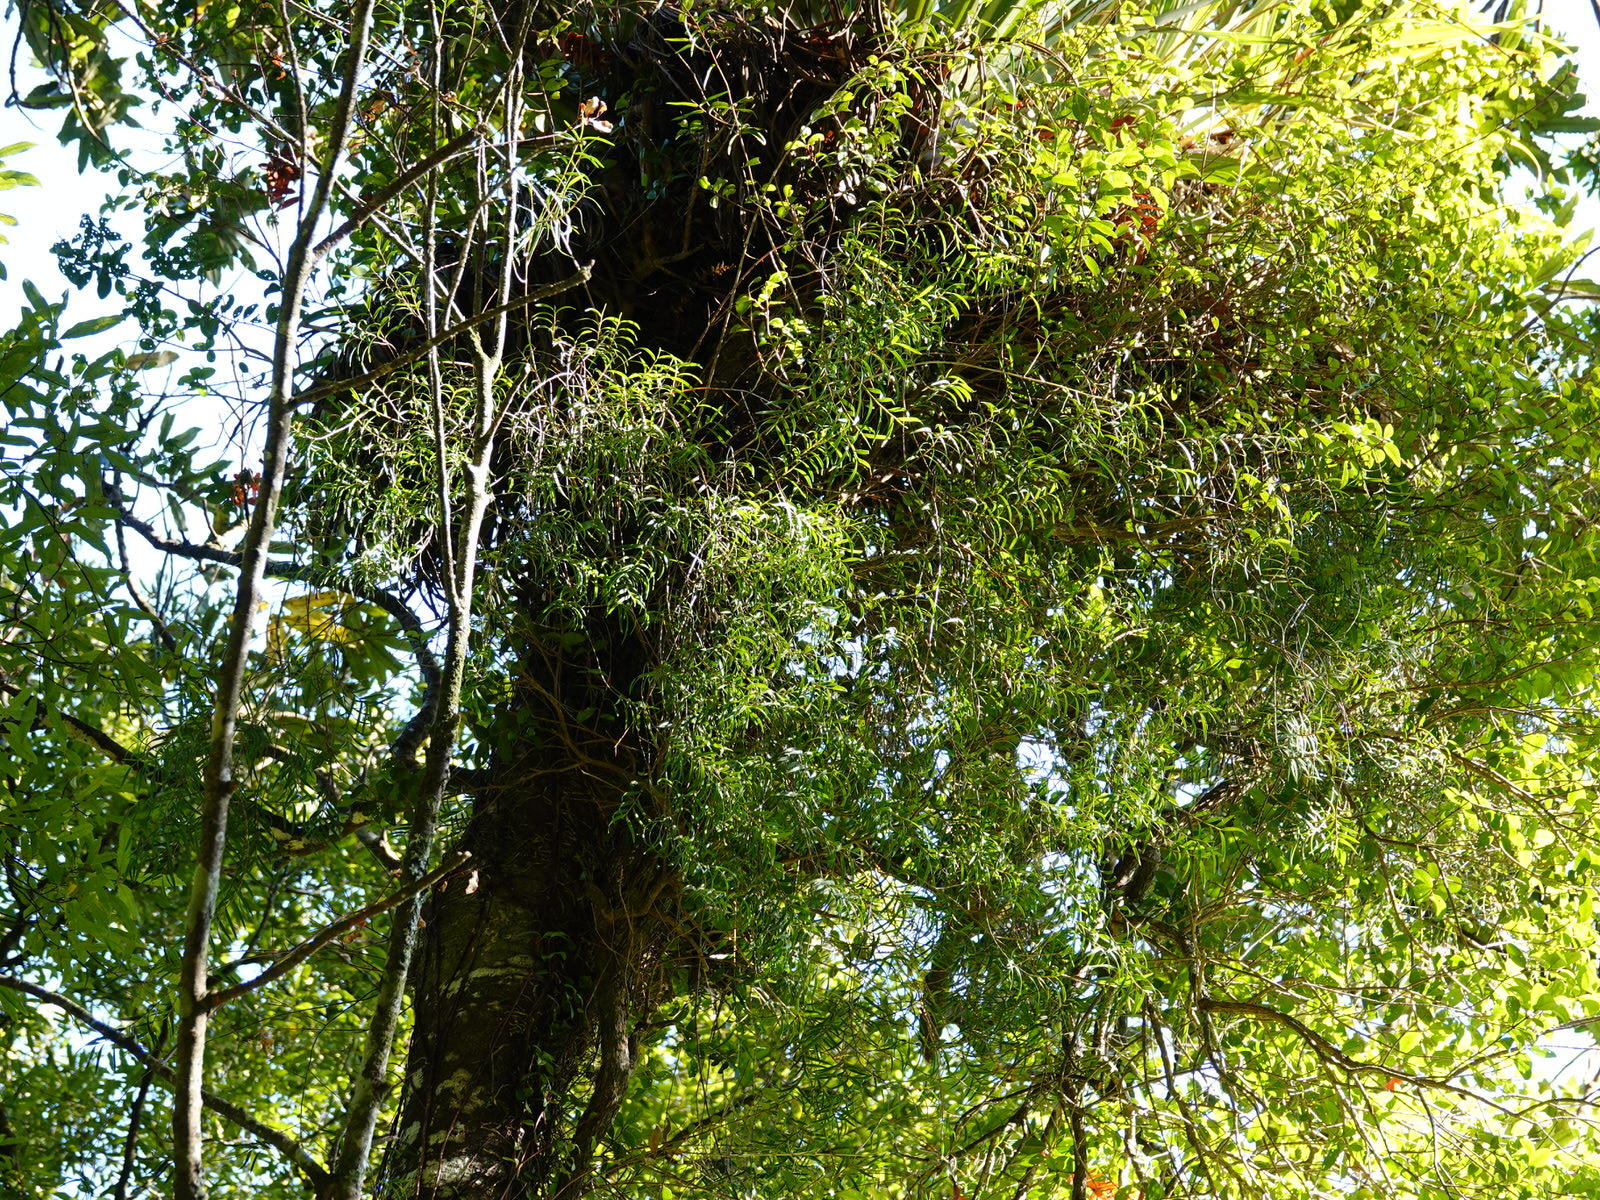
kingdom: Plantae
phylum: Tracheophyta
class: Liliopsida
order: Asparagales
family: Orchidaceae
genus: Dendrobium
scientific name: Dendrobium cunninghamii
